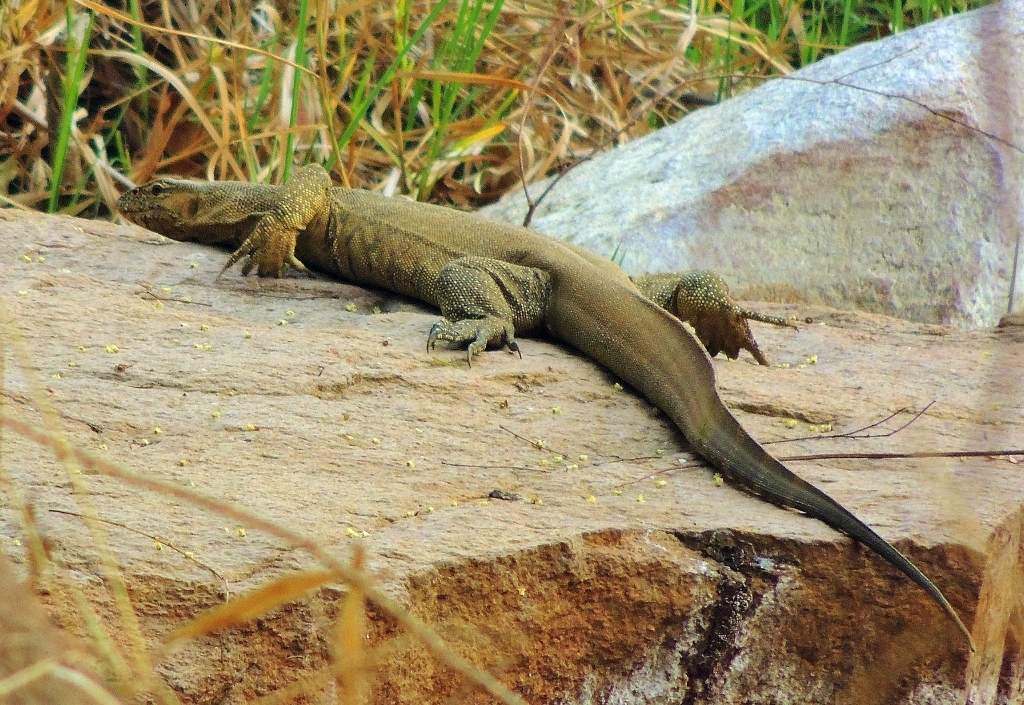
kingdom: Animalia
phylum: Chordata
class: Squamata
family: Varanidae
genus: Varanus
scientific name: Varanus niloticus
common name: Nile monitor
